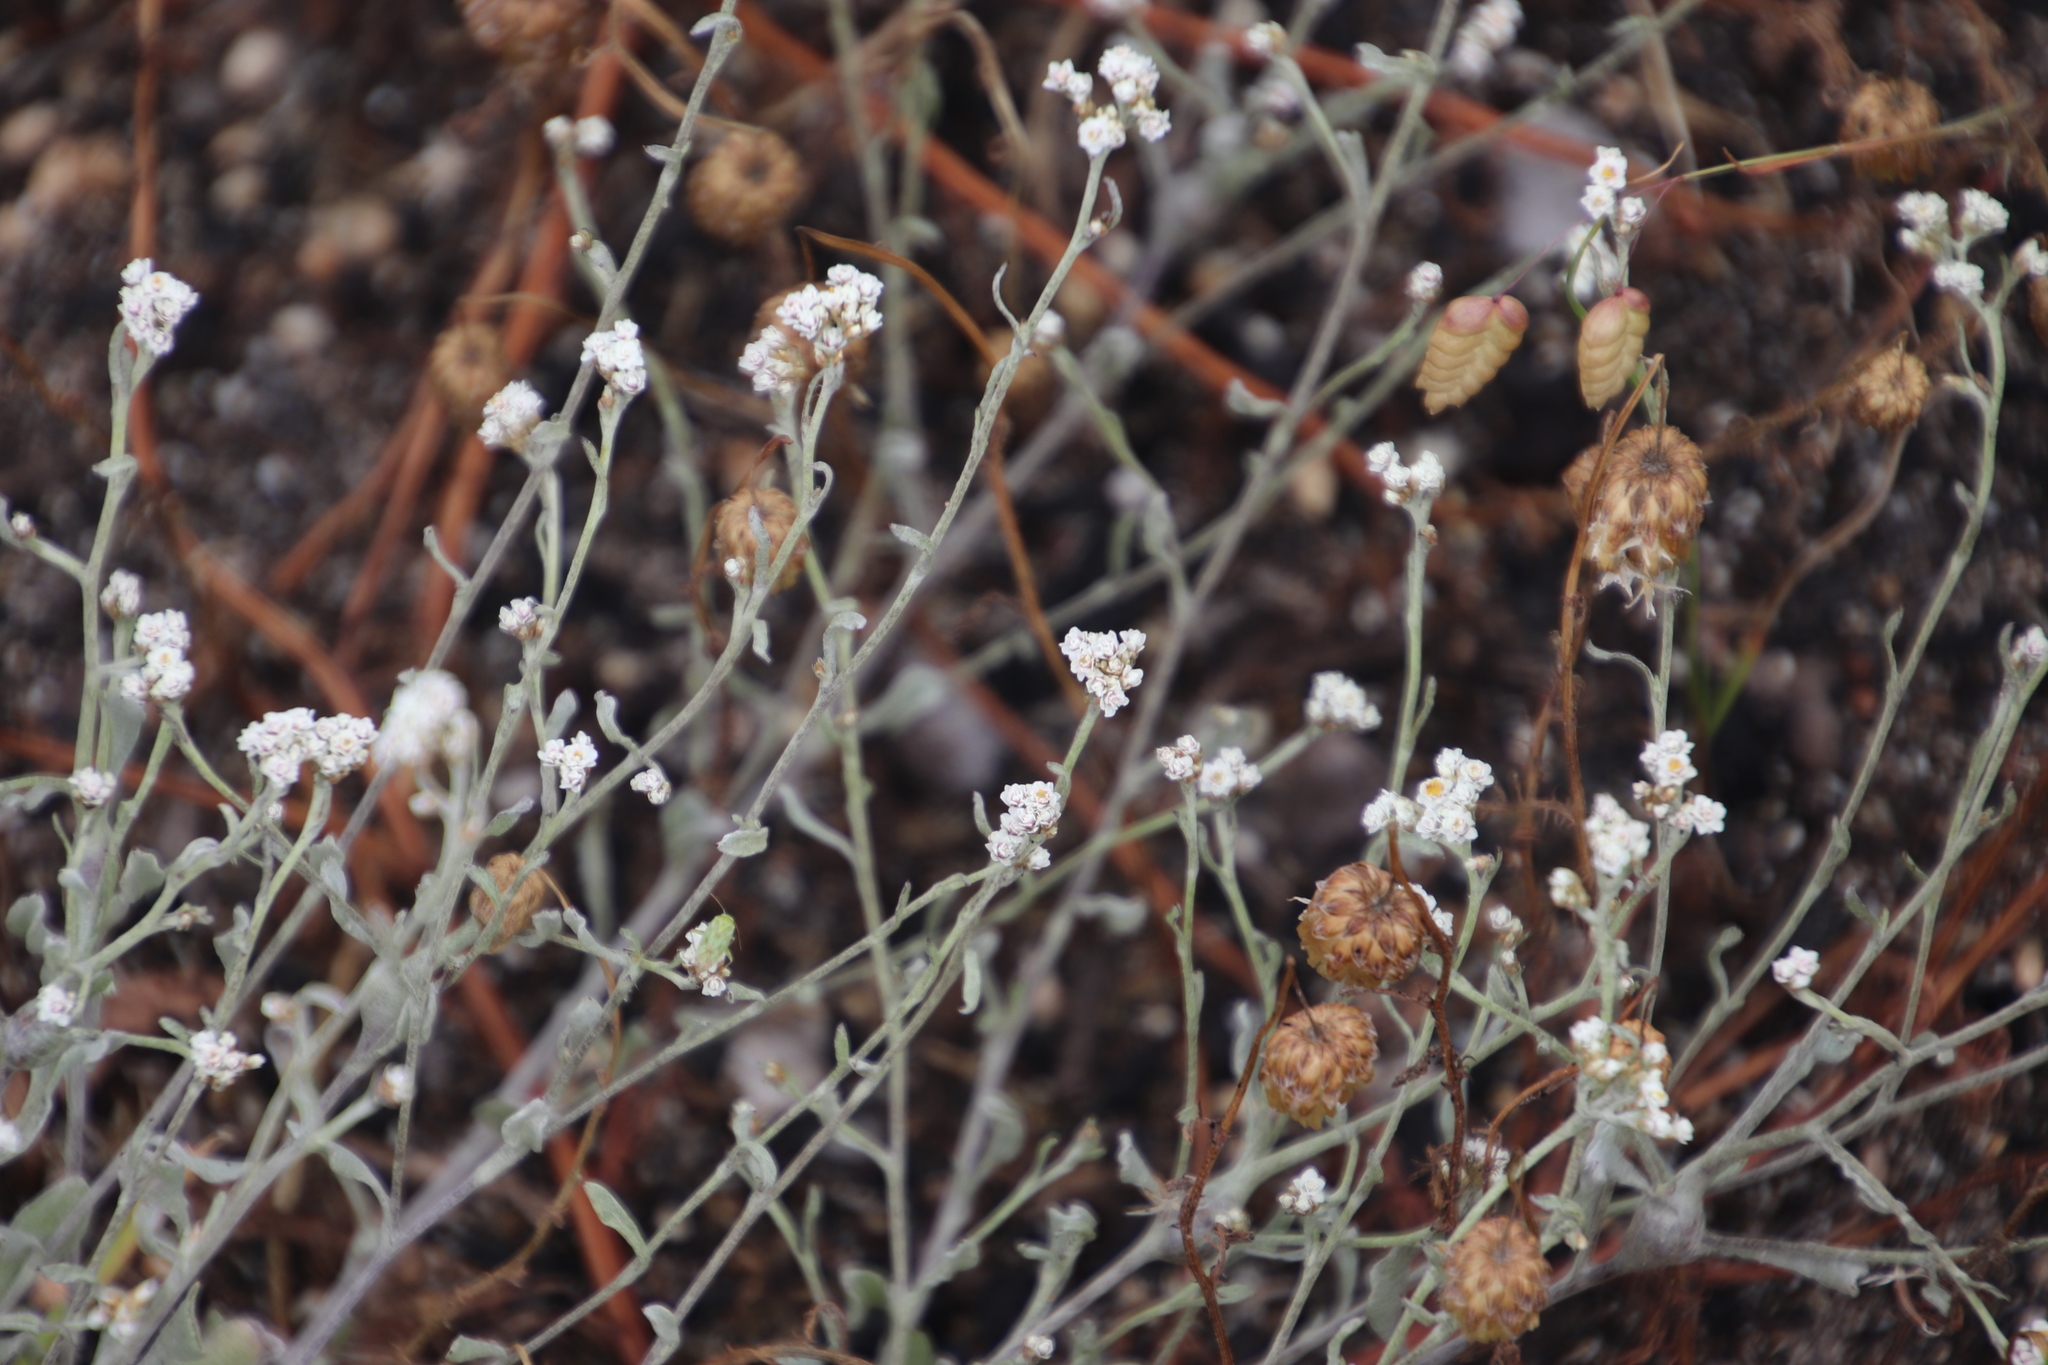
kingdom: Plantae
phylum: Tracheophyta
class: Magnoliopsida
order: Asterales
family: Asteraceae
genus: Helichrysum
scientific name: Helichrysum indicum
